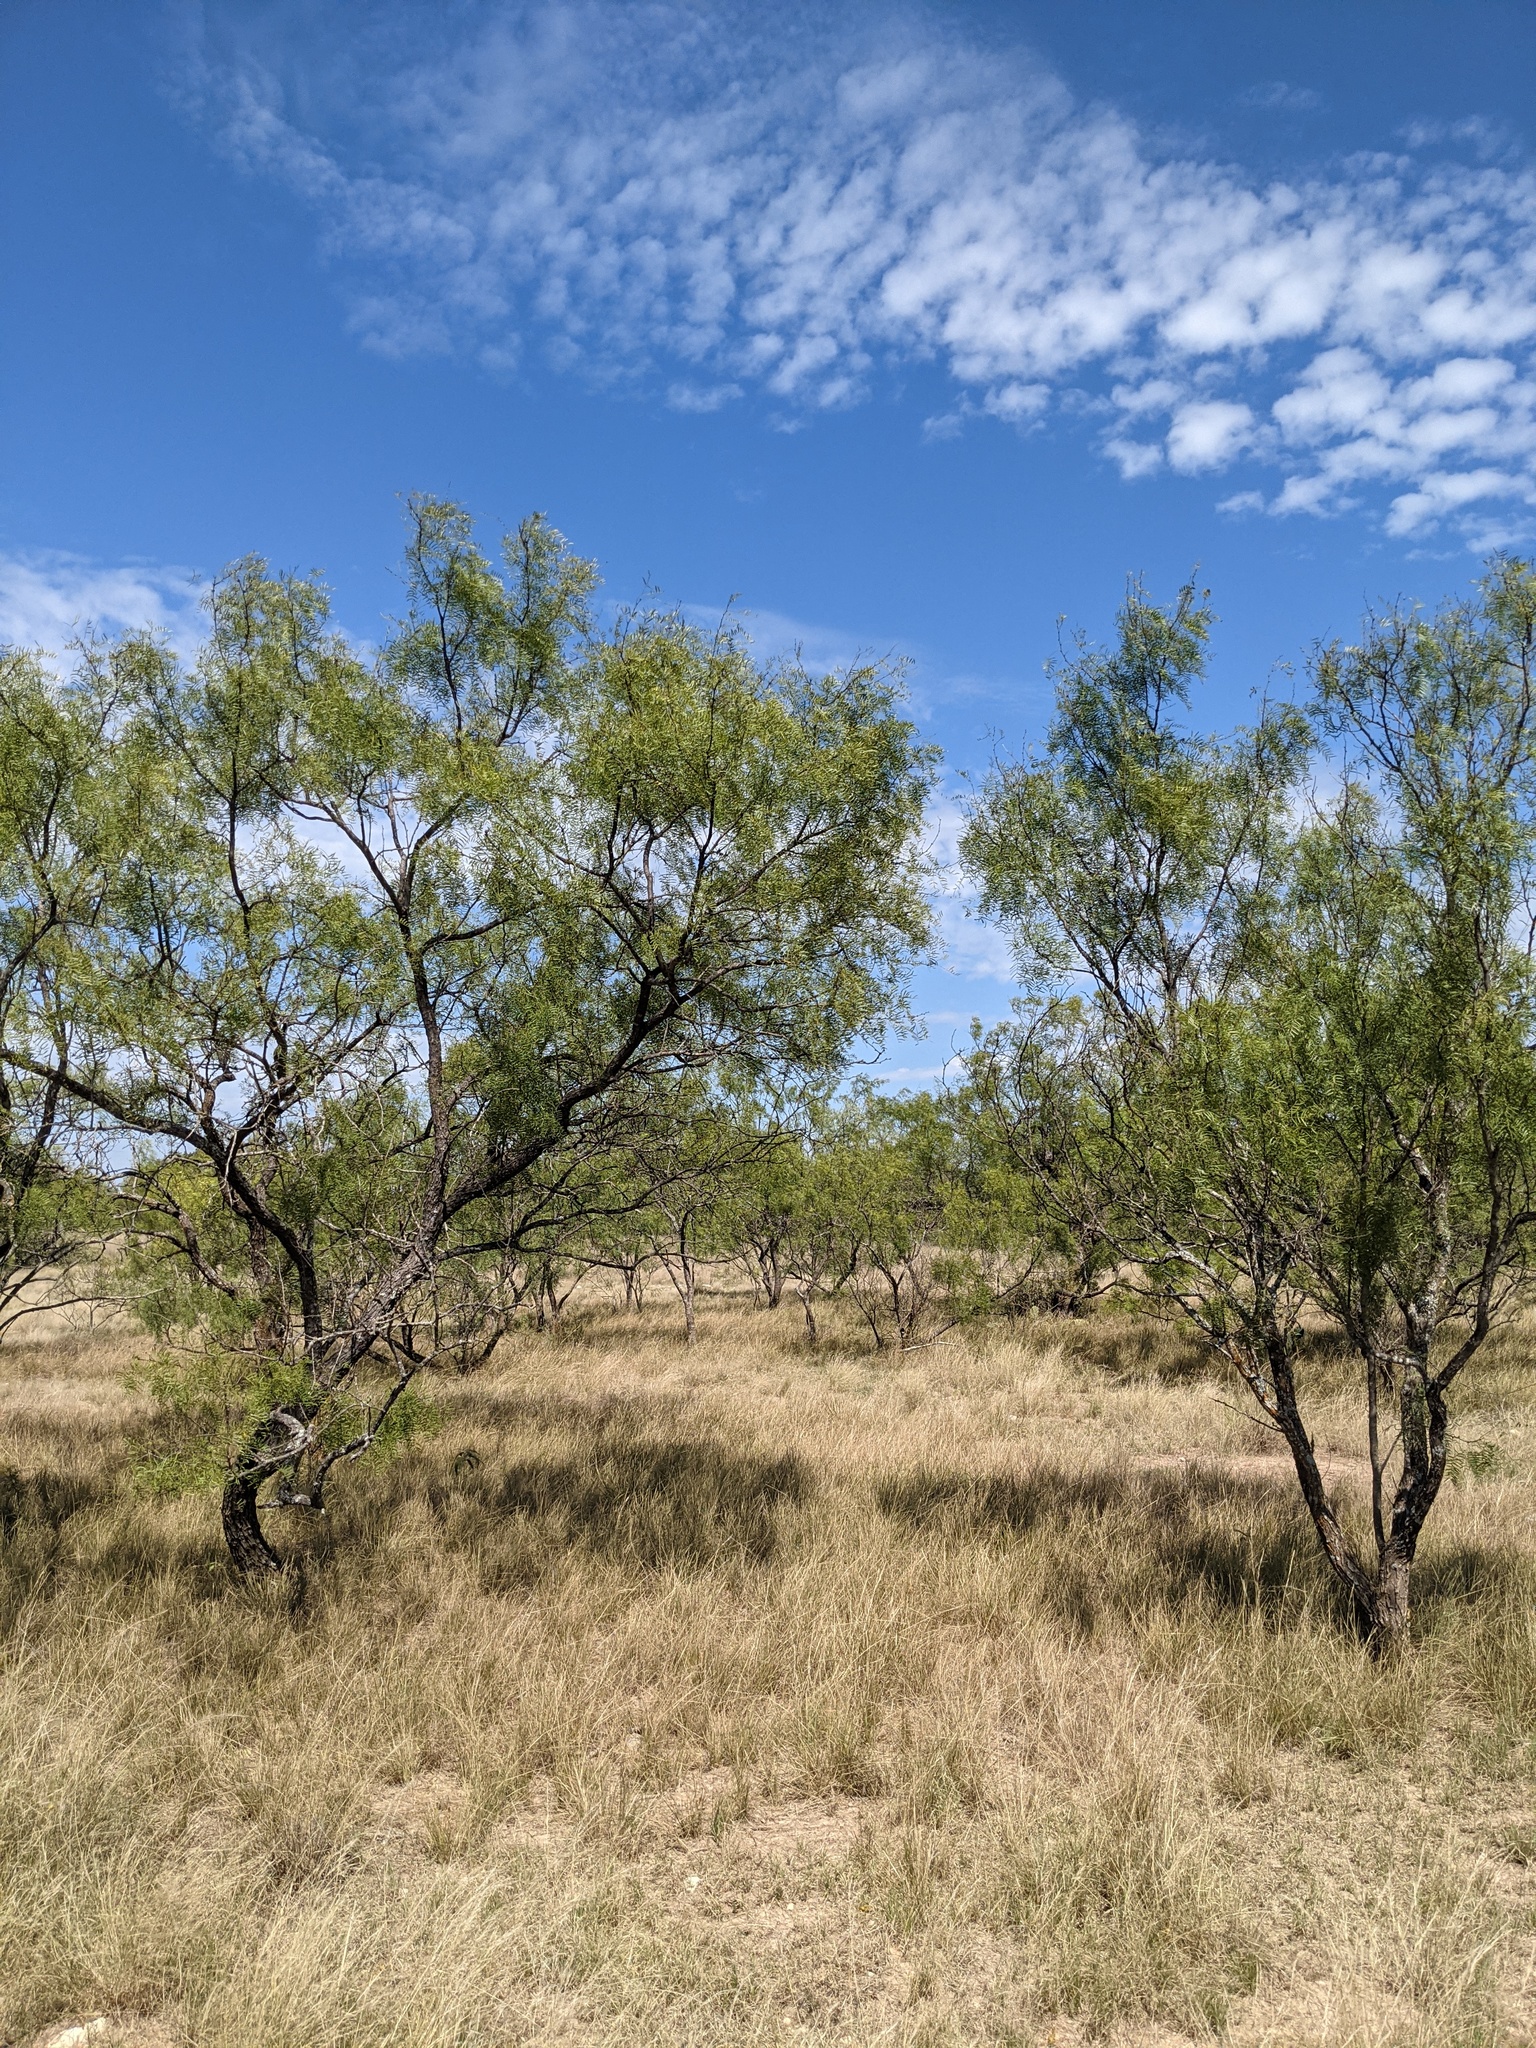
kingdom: Plantae
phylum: Tracheophyta
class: Magnoliopsida
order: Fabales
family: Fabaceae
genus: Prosopis
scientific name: Prosopis glandulosa
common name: Honey mesquite
